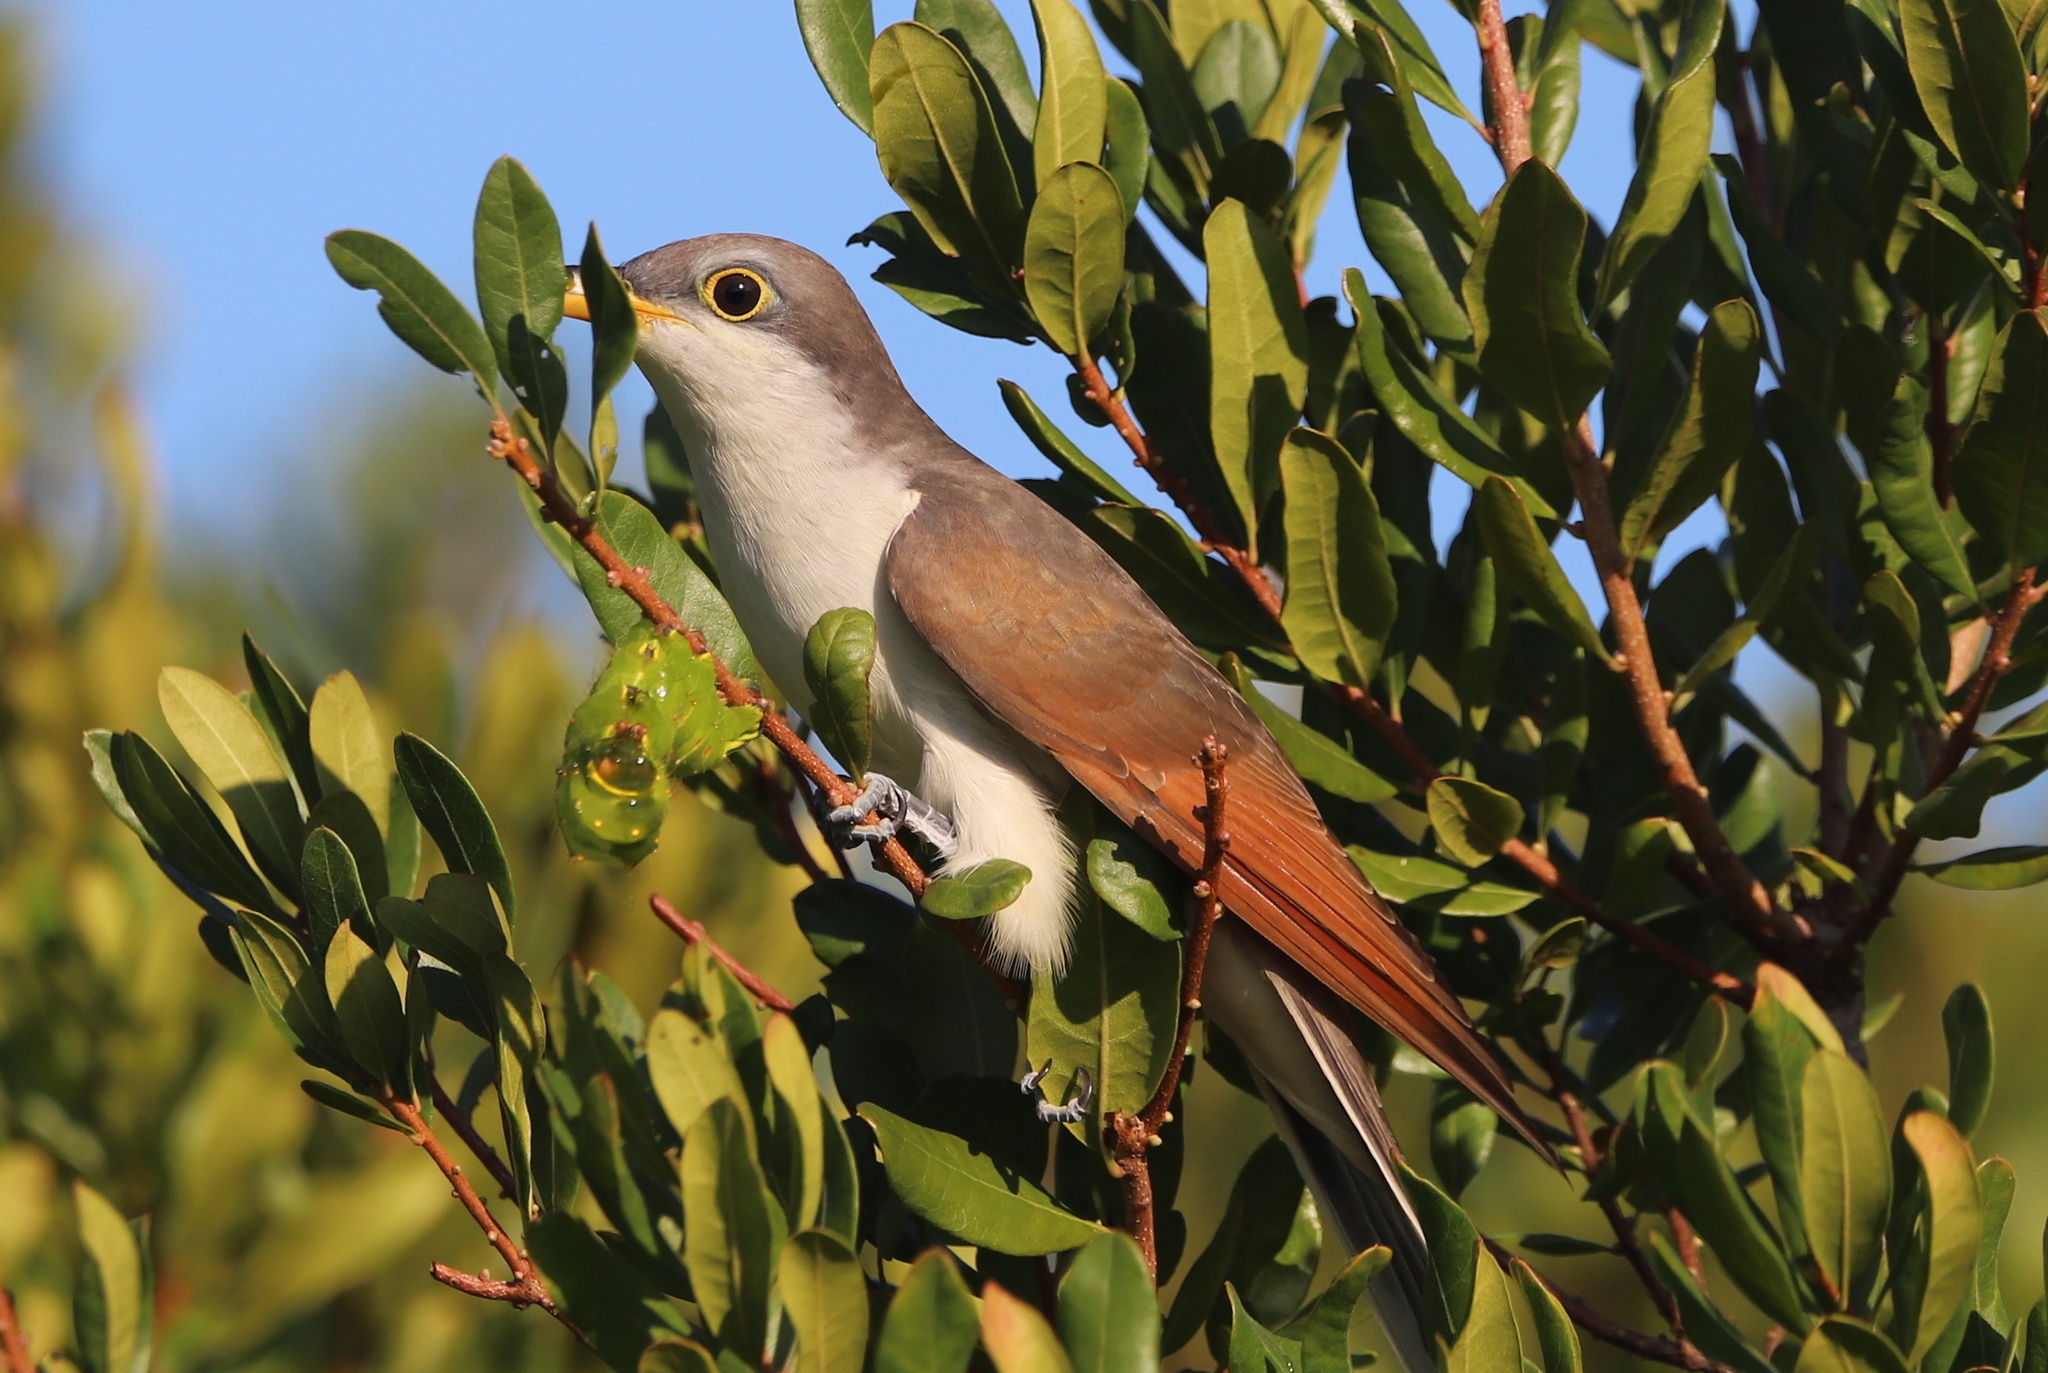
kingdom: Animalia
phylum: Chordata
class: Aves
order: Cuculiformes
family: Cuculidae
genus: Coccyzus
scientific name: Coccyzus americanus
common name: Yellow-billed cuckoo
